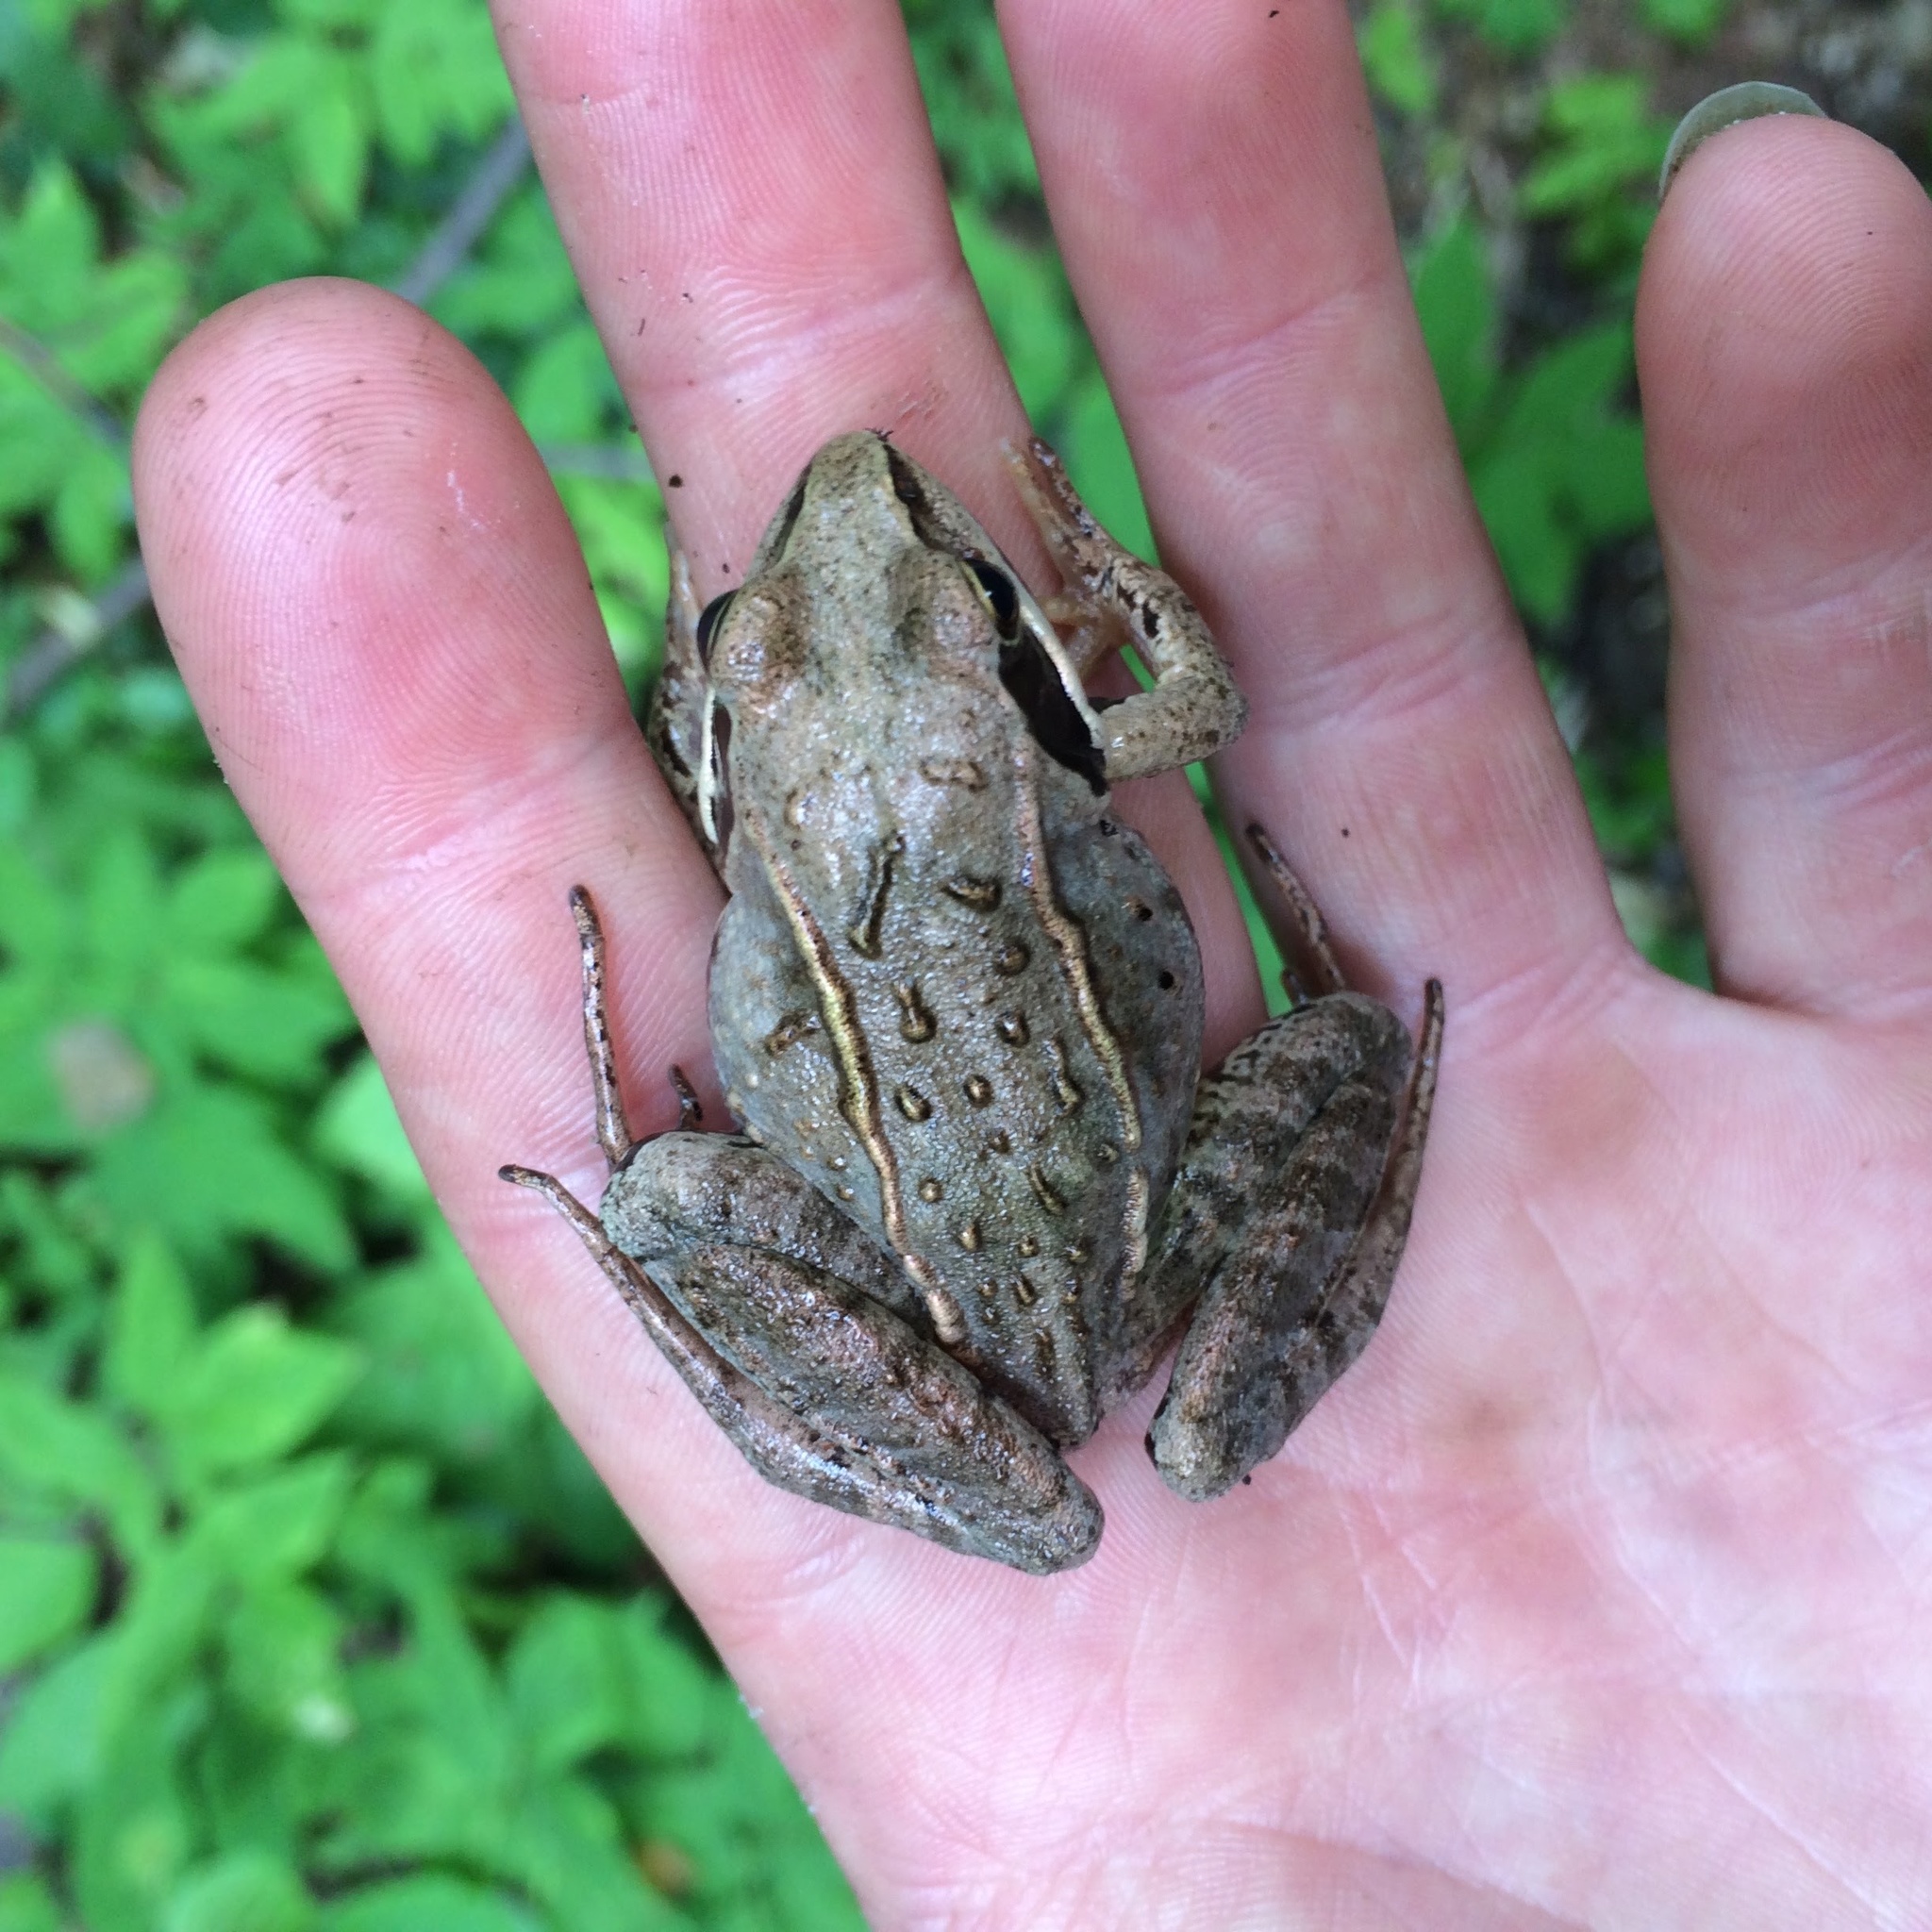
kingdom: Animalia
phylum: Chordata
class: Amphibia
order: Anura
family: Ranidae
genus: Rana
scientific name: Rana arvalis
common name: Moor frog
